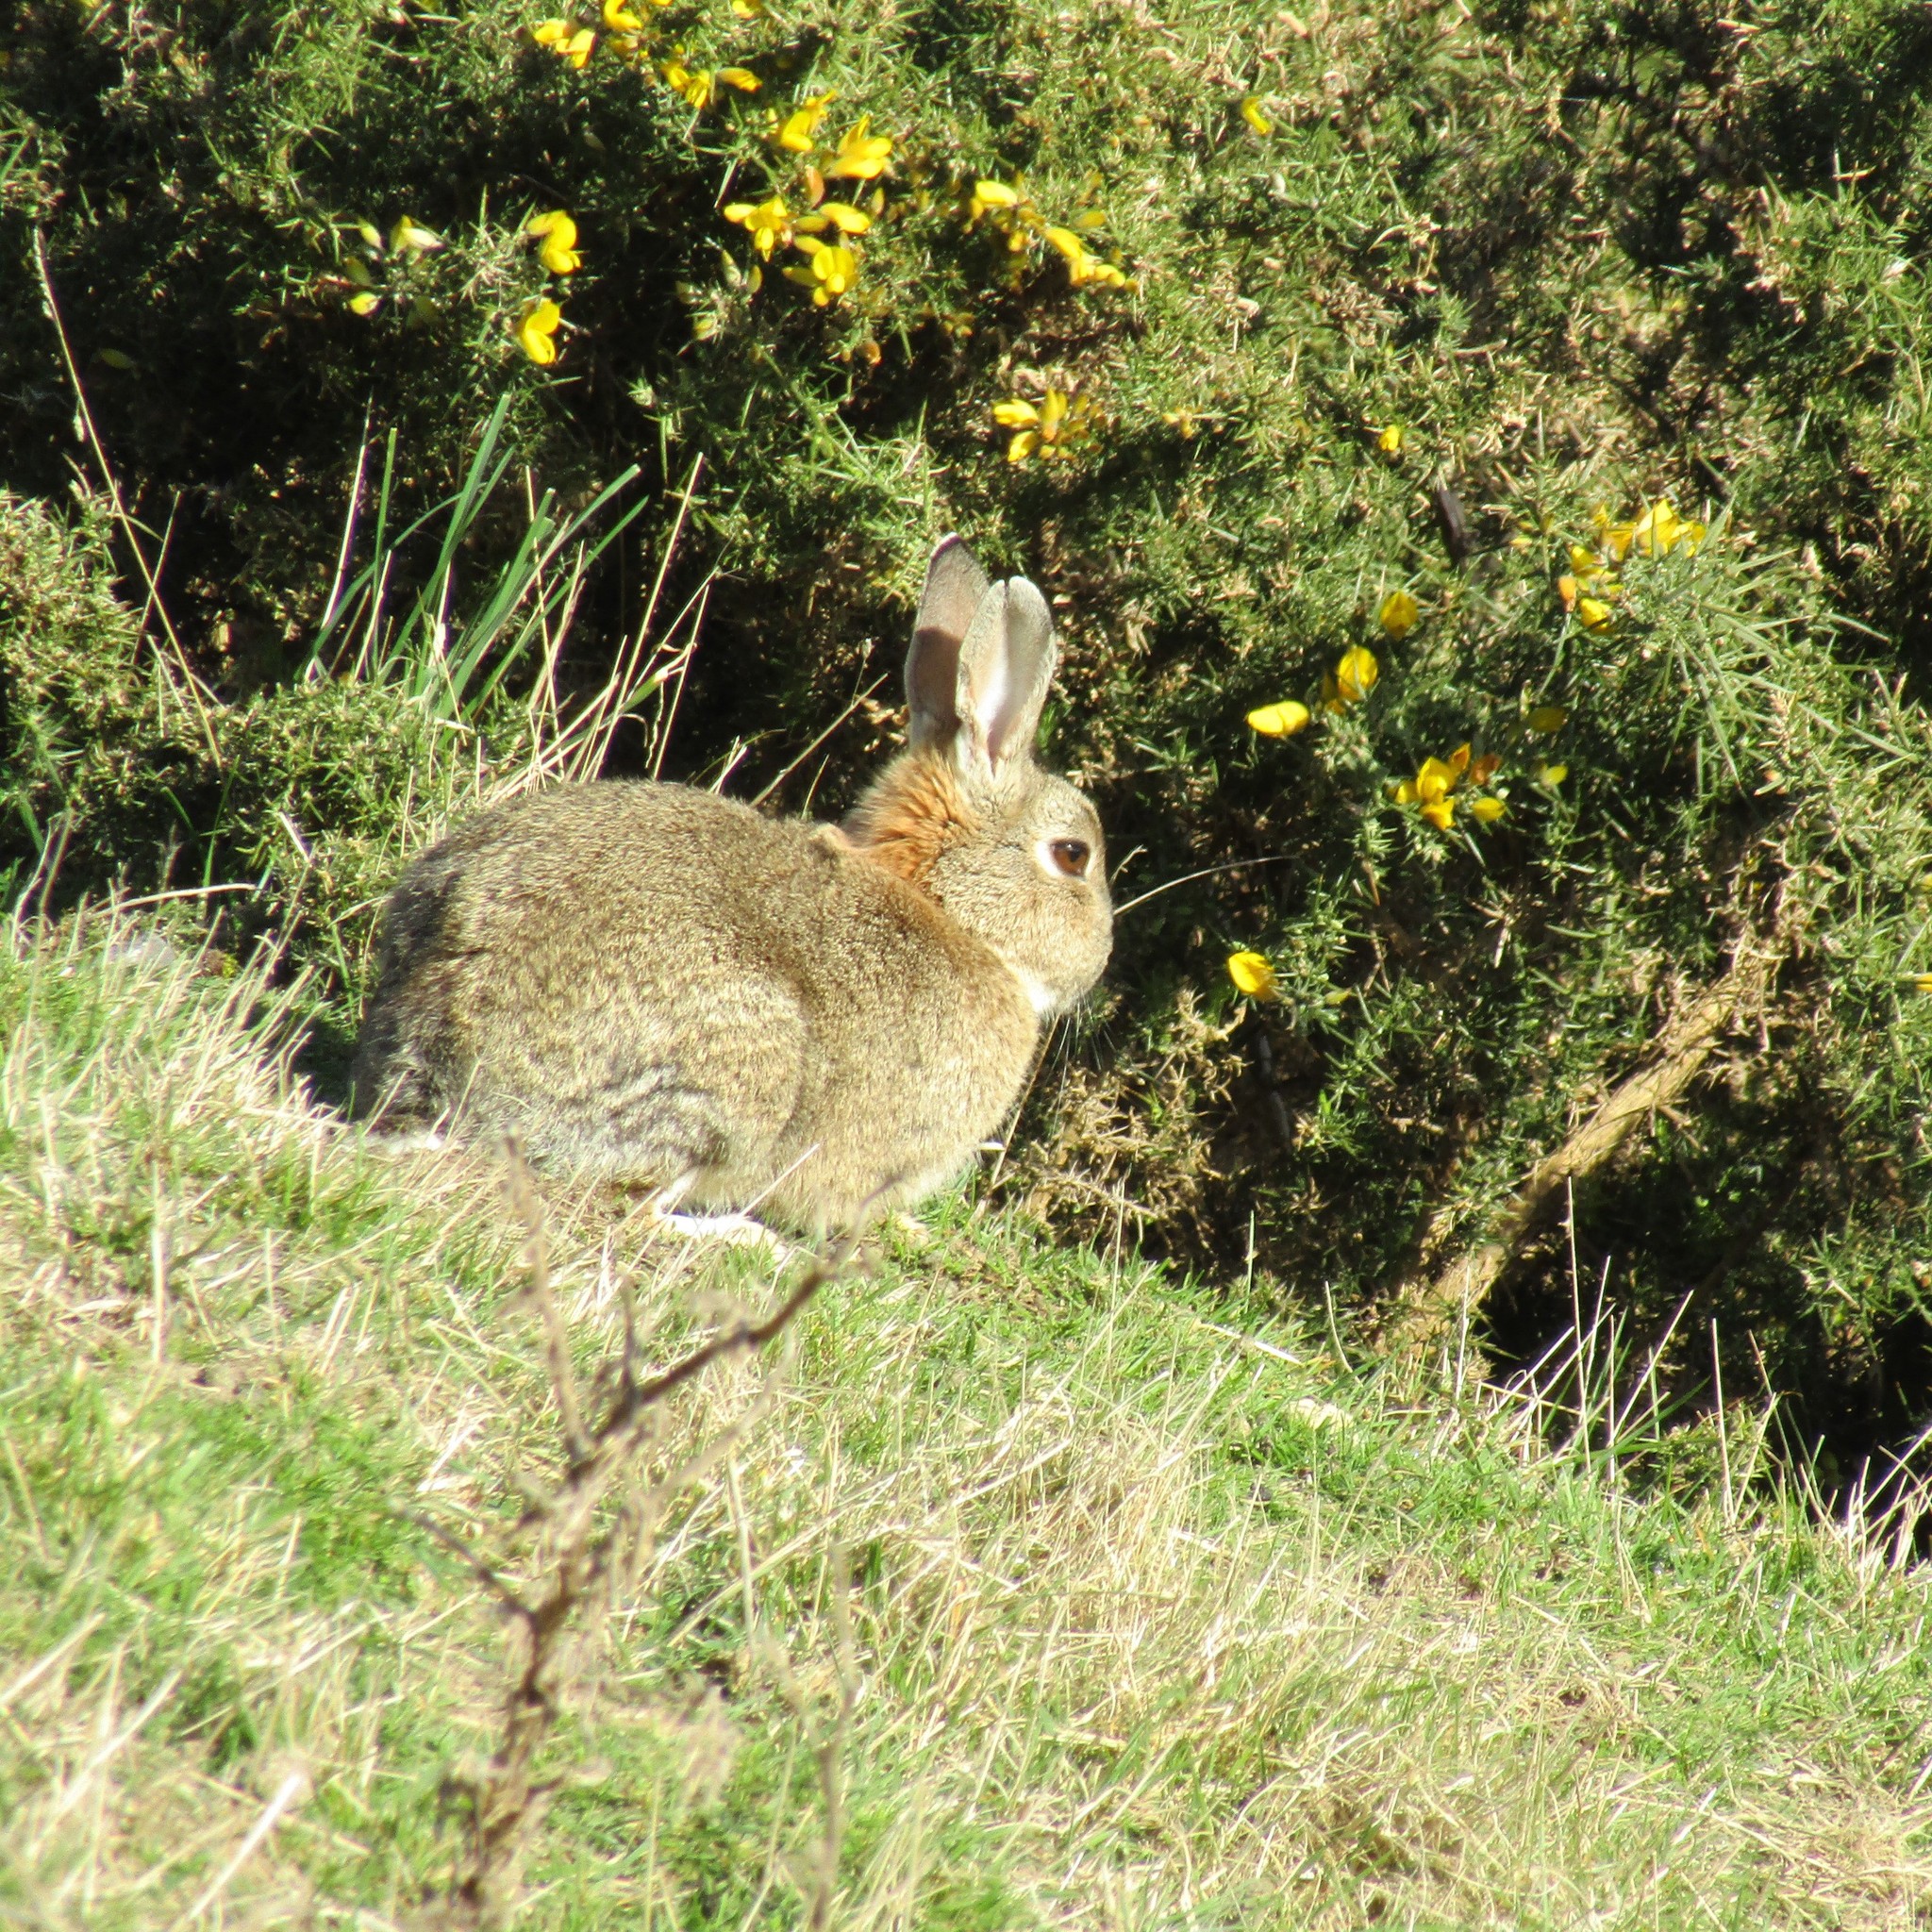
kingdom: Animalia
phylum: Chordata
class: Mammalia
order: Lagomorpha
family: Leporidae
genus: Oryctolagus
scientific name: Oryctolagus cuniculus
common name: European rabbit
